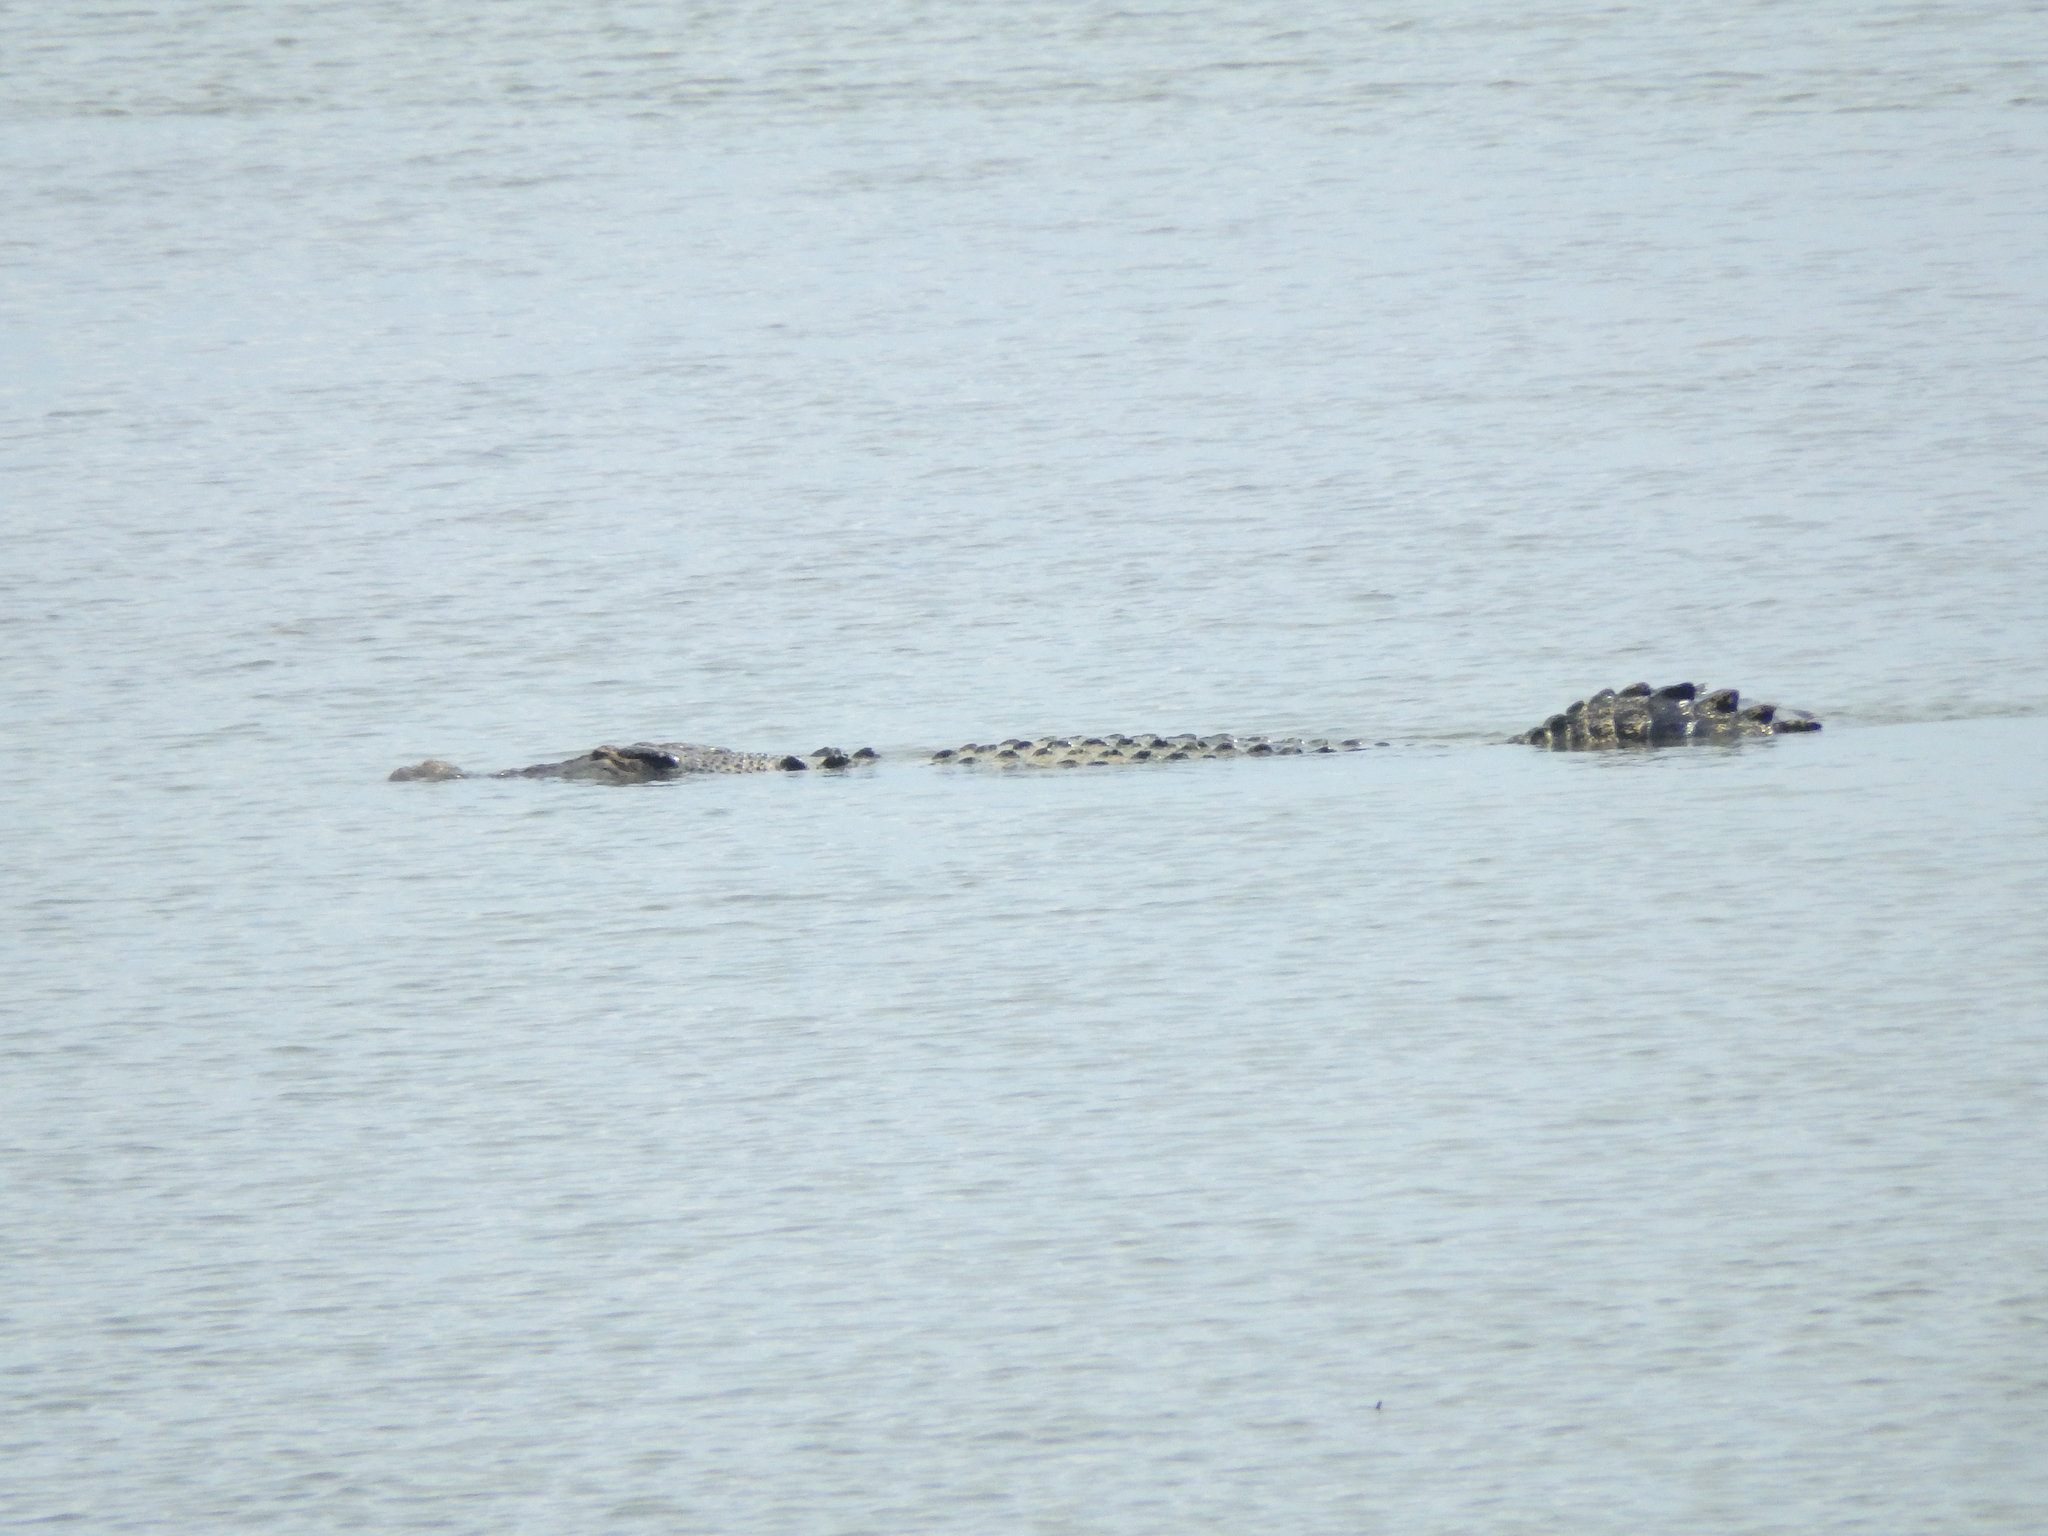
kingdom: Animalia
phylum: Chordata
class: Crocodylia
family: Crocodylidae
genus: Crocodylus
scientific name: Crocodylus porosus
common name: Saltwater crocodile
